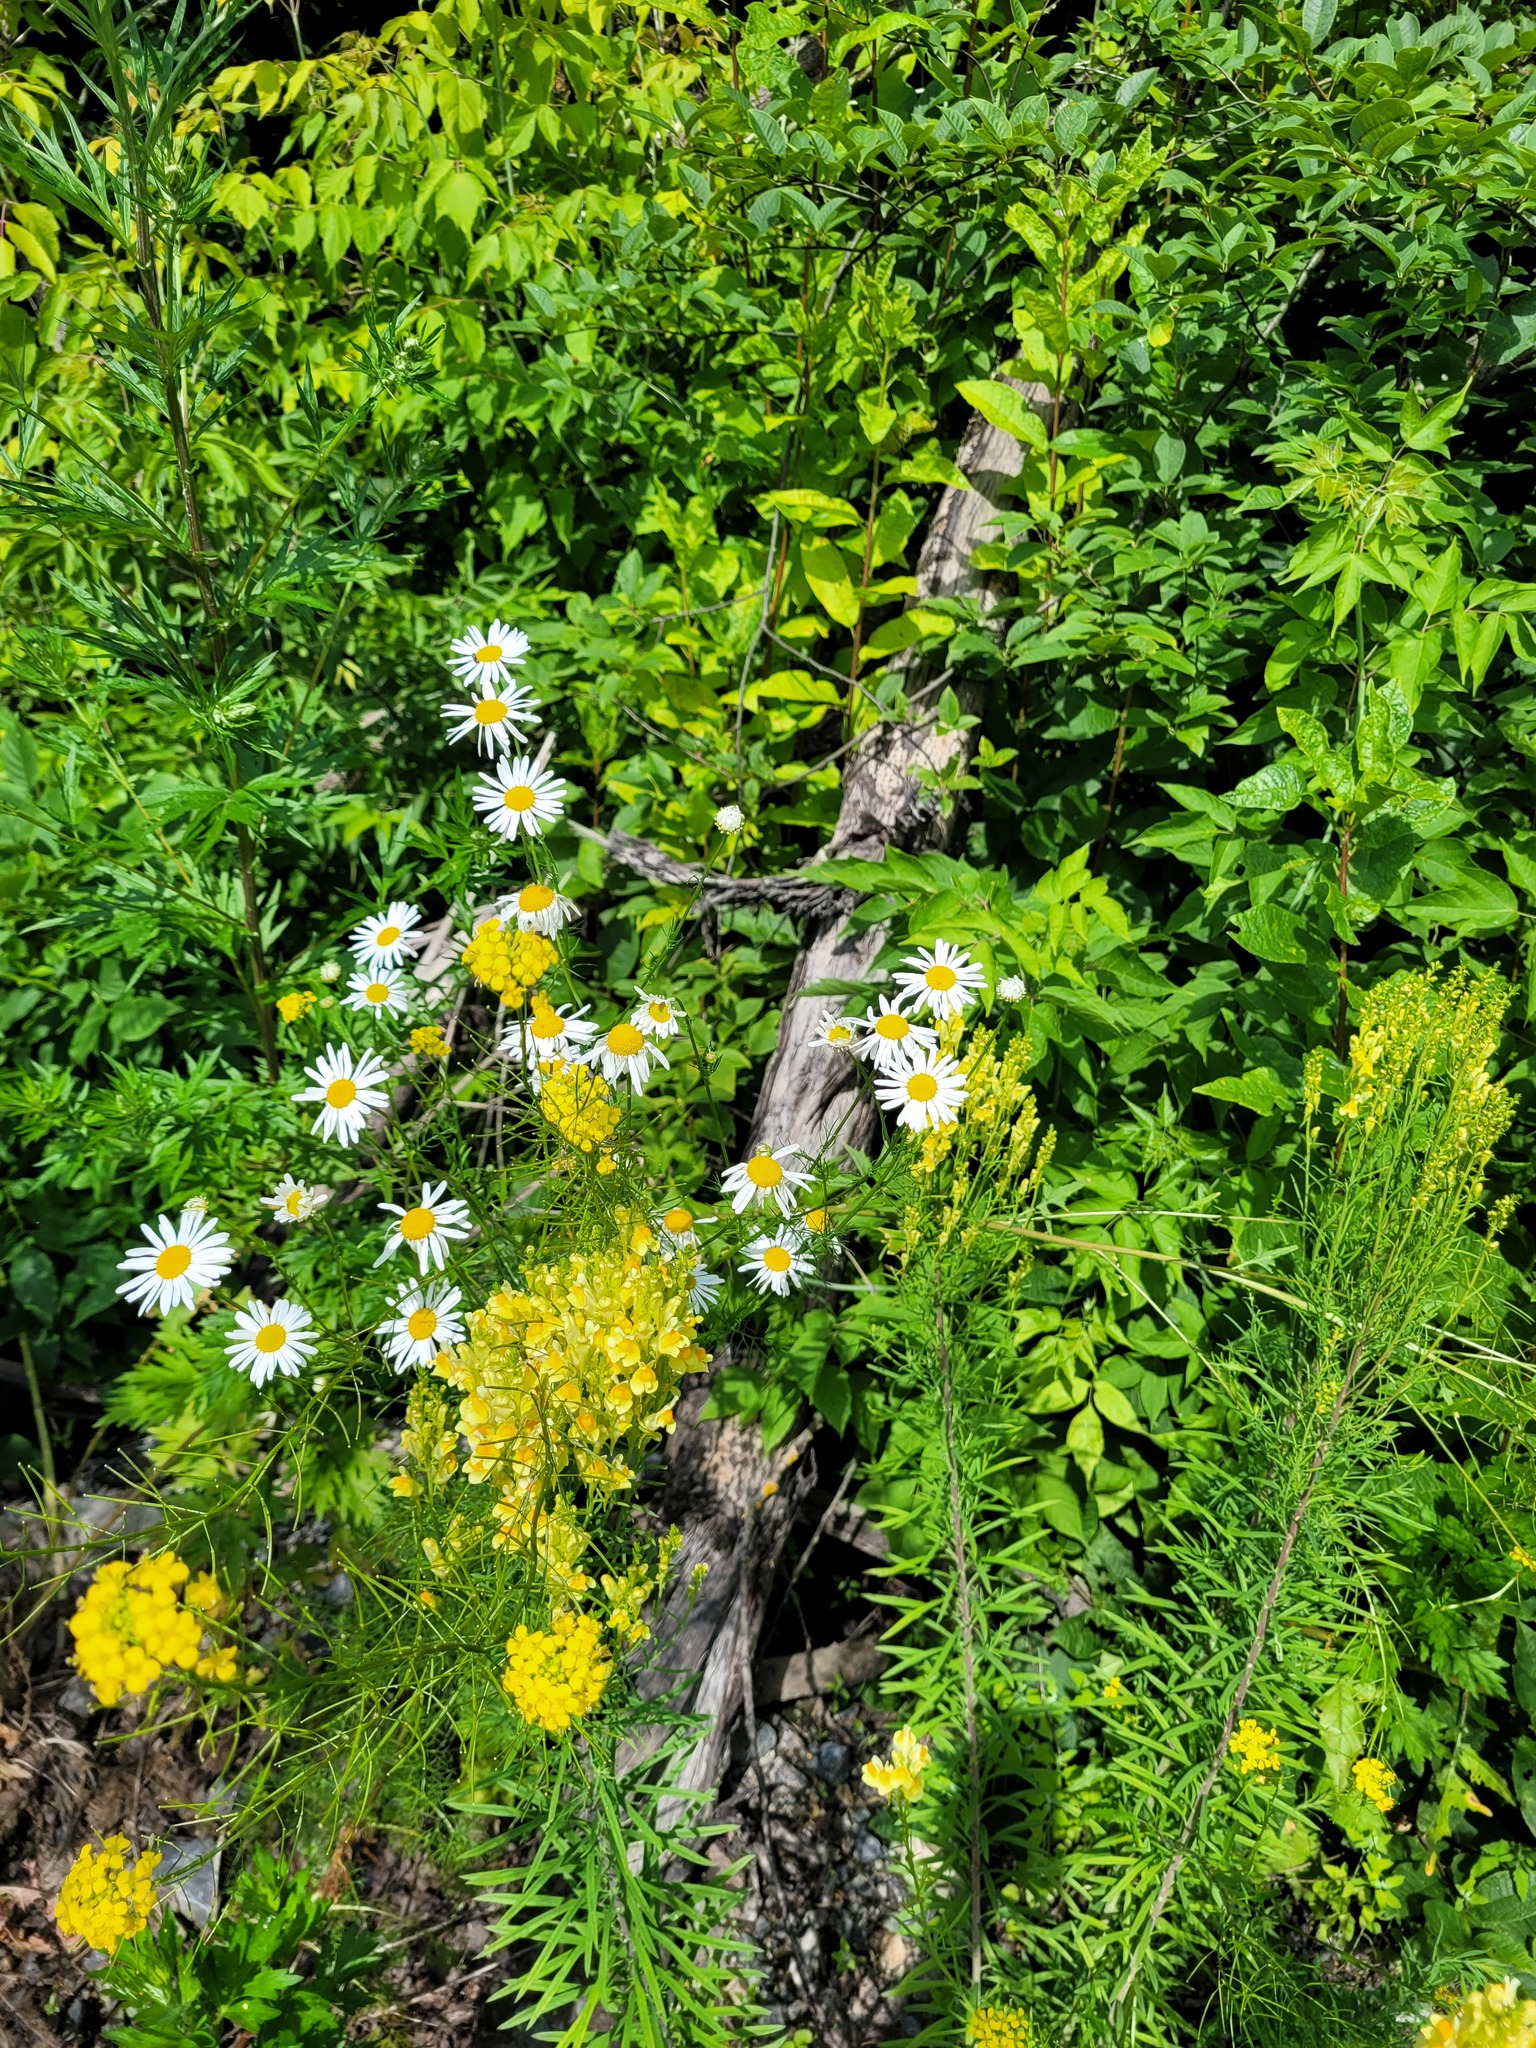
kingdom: Plantae
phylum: Tracheophyta
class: Magnoliopsida
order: Asterales
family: Asteraceae
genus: Tripleurospermum
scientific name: Tripleurospermum inodorum
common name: Scentless mayweed
